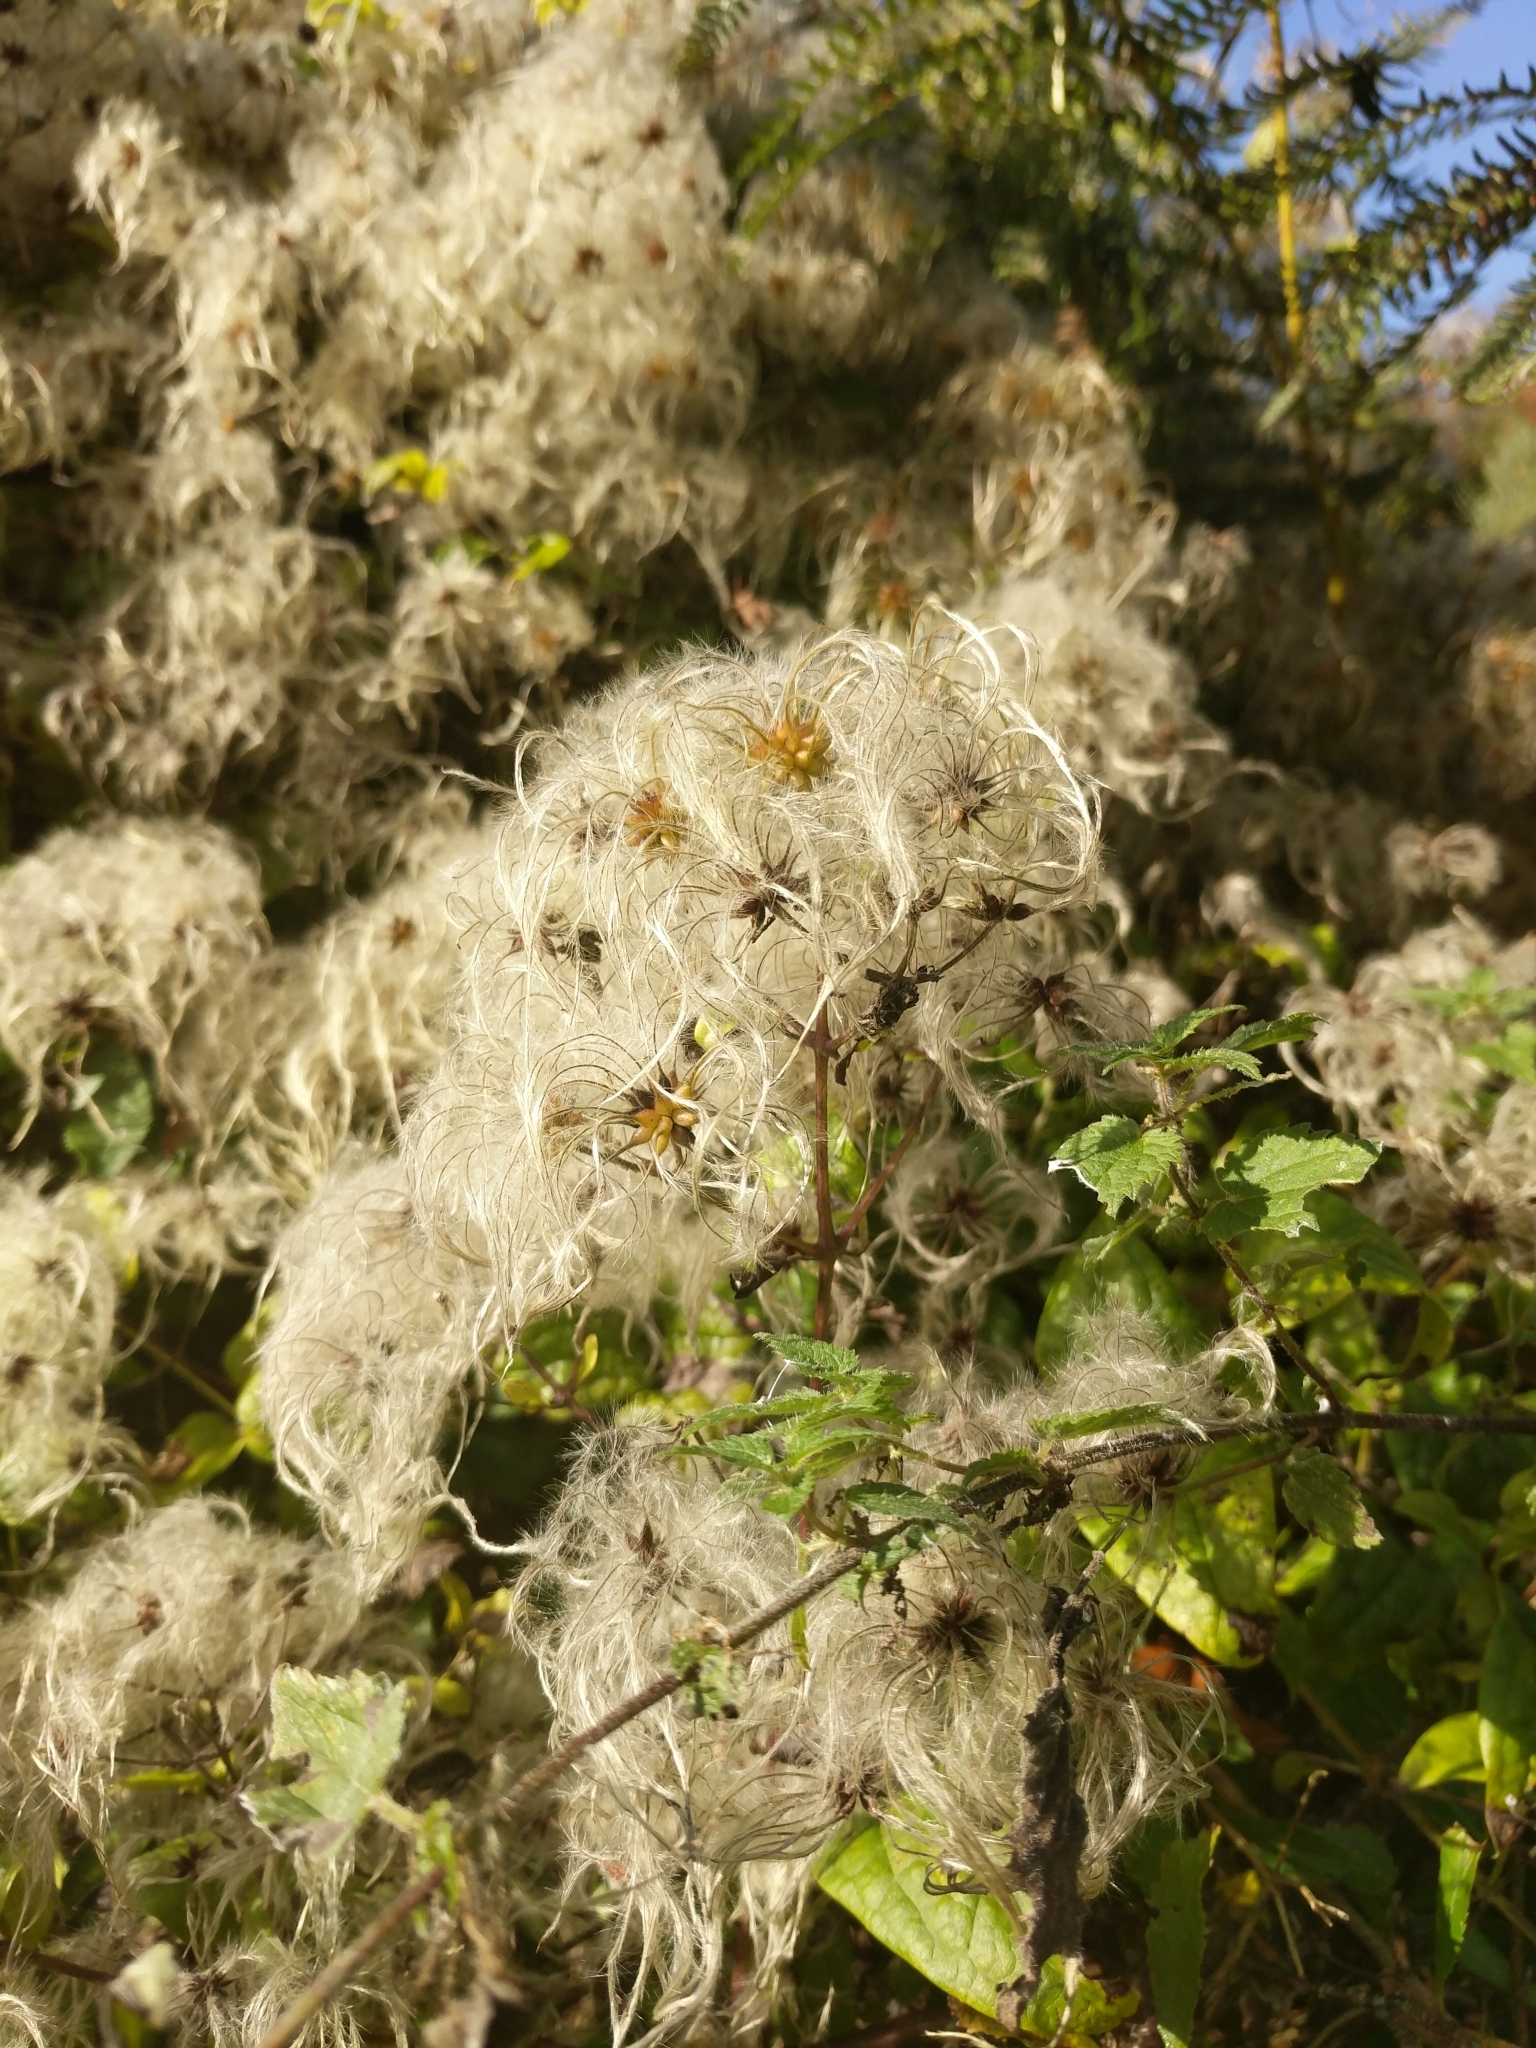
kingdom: Plantae
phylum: Tracheophyta
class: Magnoliopsida
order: Ranunculales
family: Ranunculaceae
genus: Clematis
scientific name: Clematis vitalba
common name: Evergreen clematis
